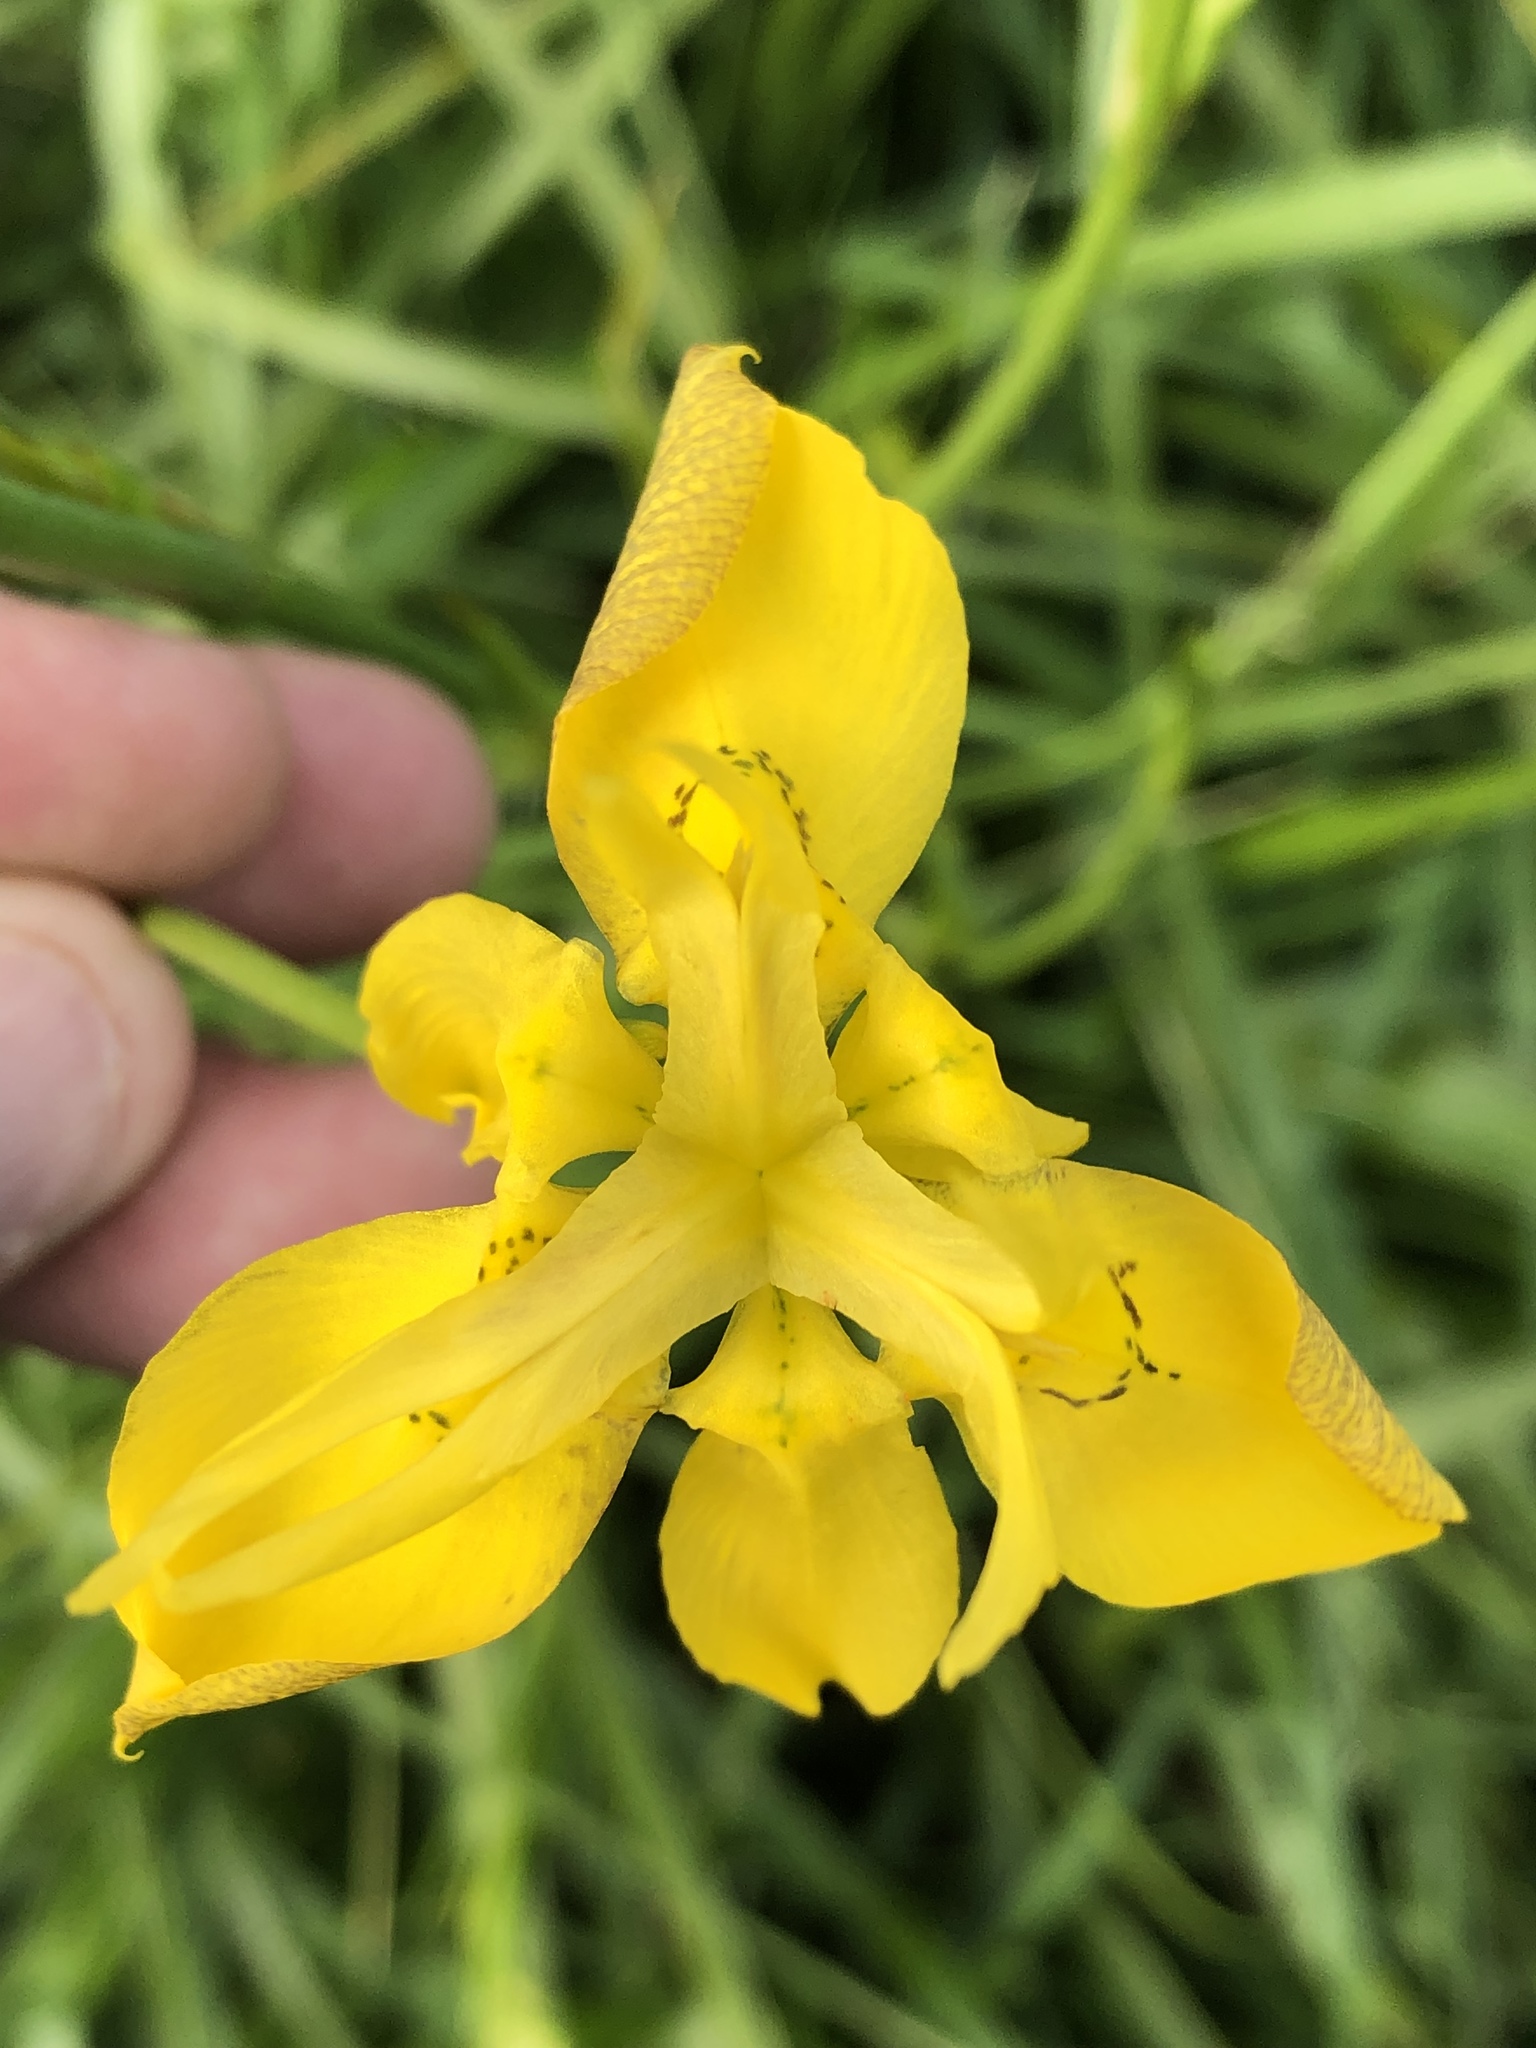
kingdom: Plantae
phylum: Tracheophyta
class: Liliopsida
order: Asparagales
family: Iridaceae
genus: Moraea
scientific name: Moraea ramosissima
